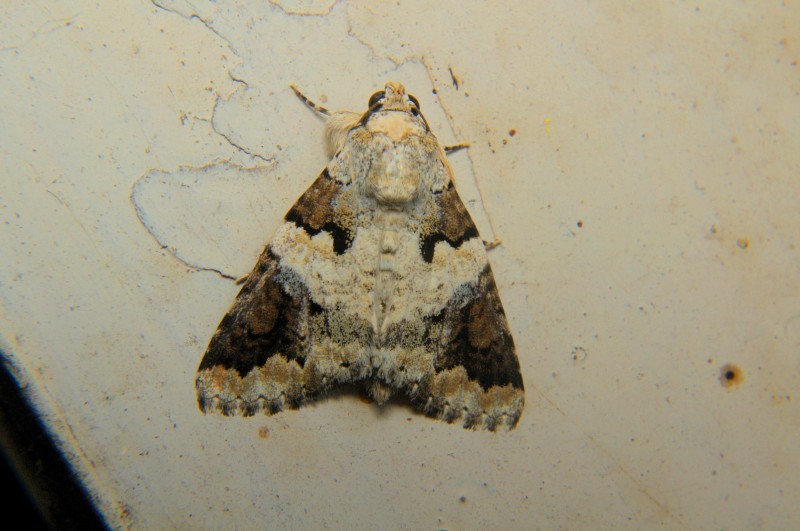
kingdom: Animalia
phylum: Arthropoda
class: Insecta
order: Lepidoptera
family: Erebidae
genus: Bamra
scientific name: Bamra lepida
